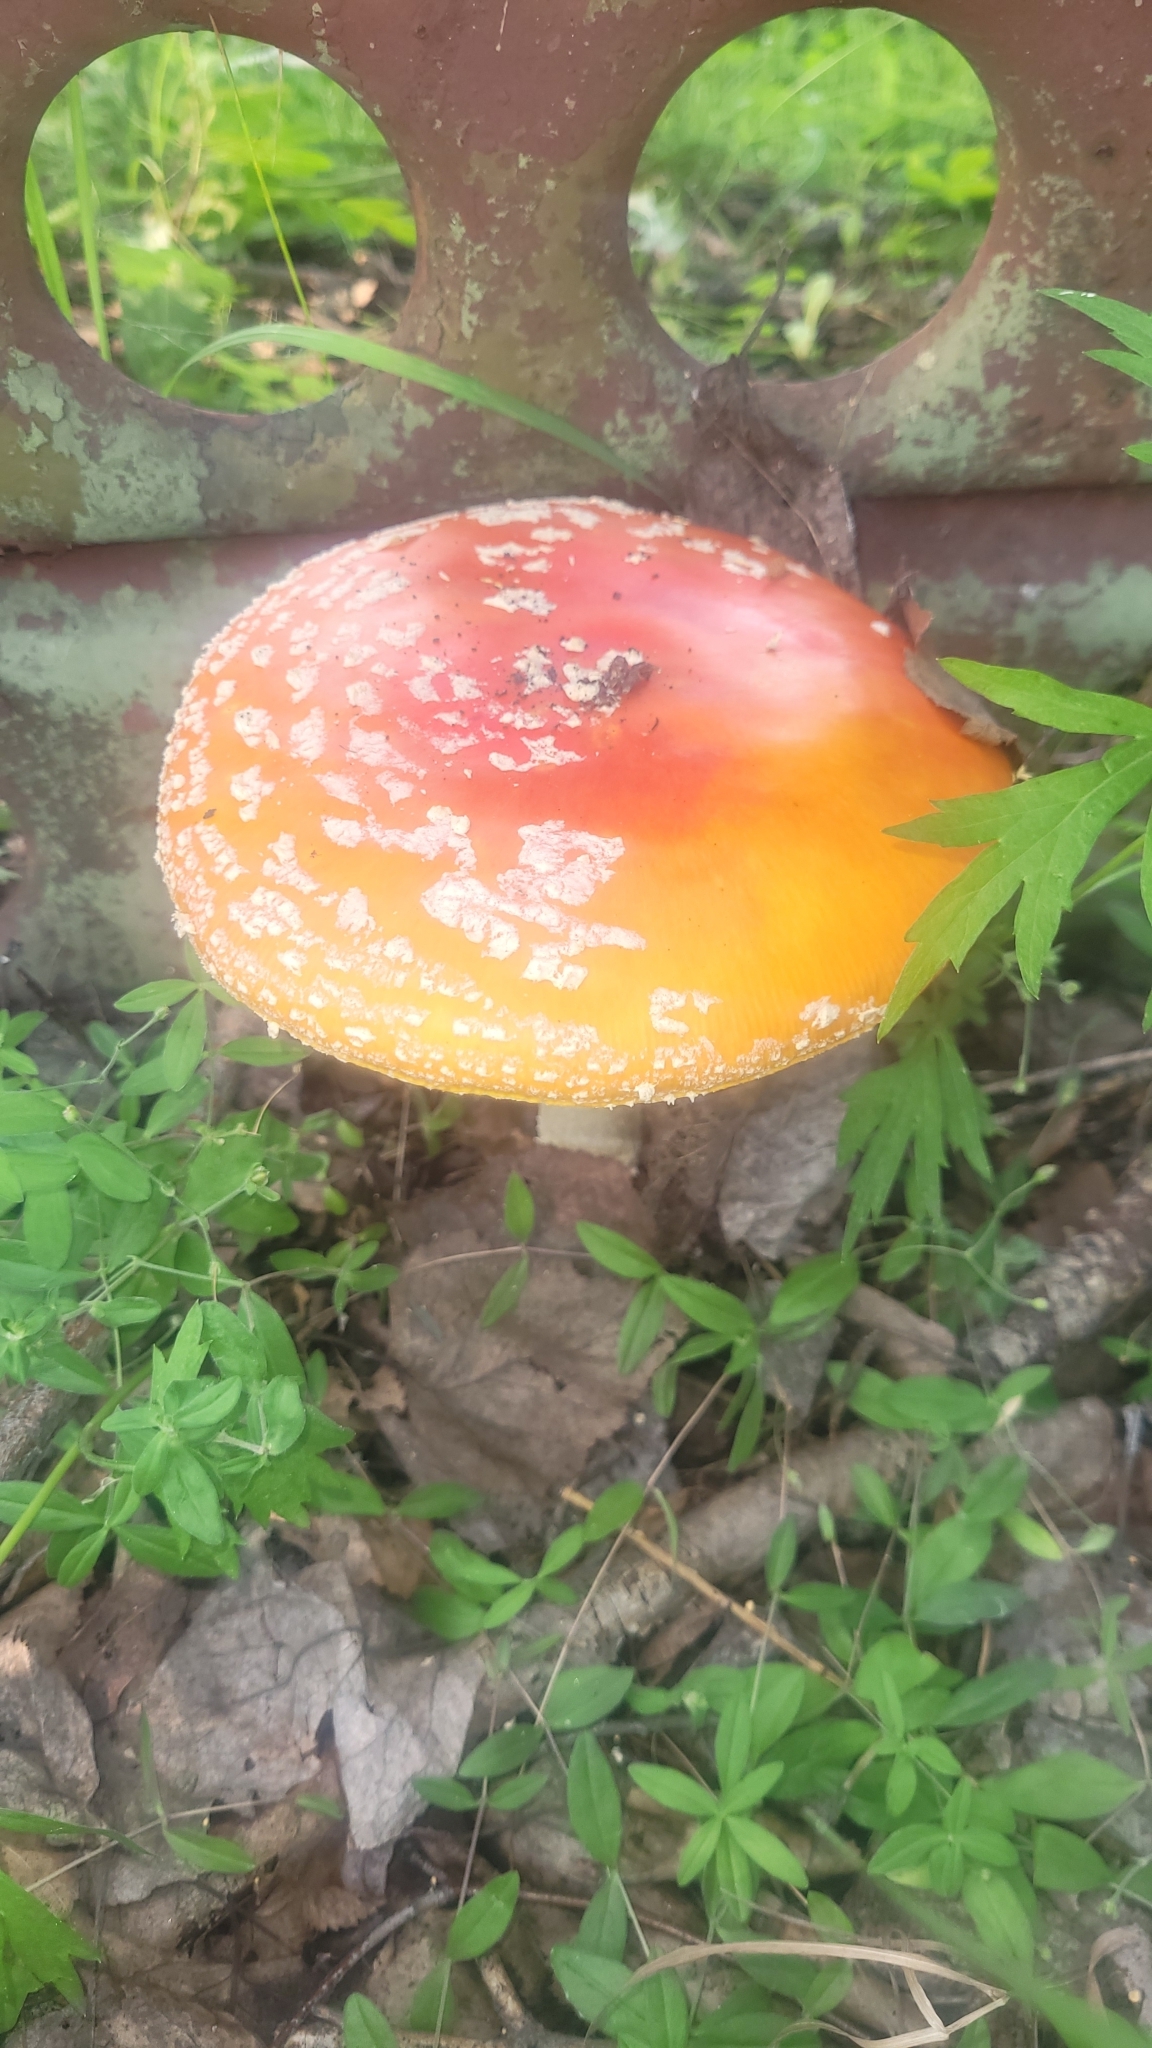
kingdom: Fungi
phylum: Basidiomycota
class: Agaricomycetes
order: Agaricales
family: Amanitaceae
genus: Amanita
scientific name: Amanita muscaria
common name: Fly agaric
